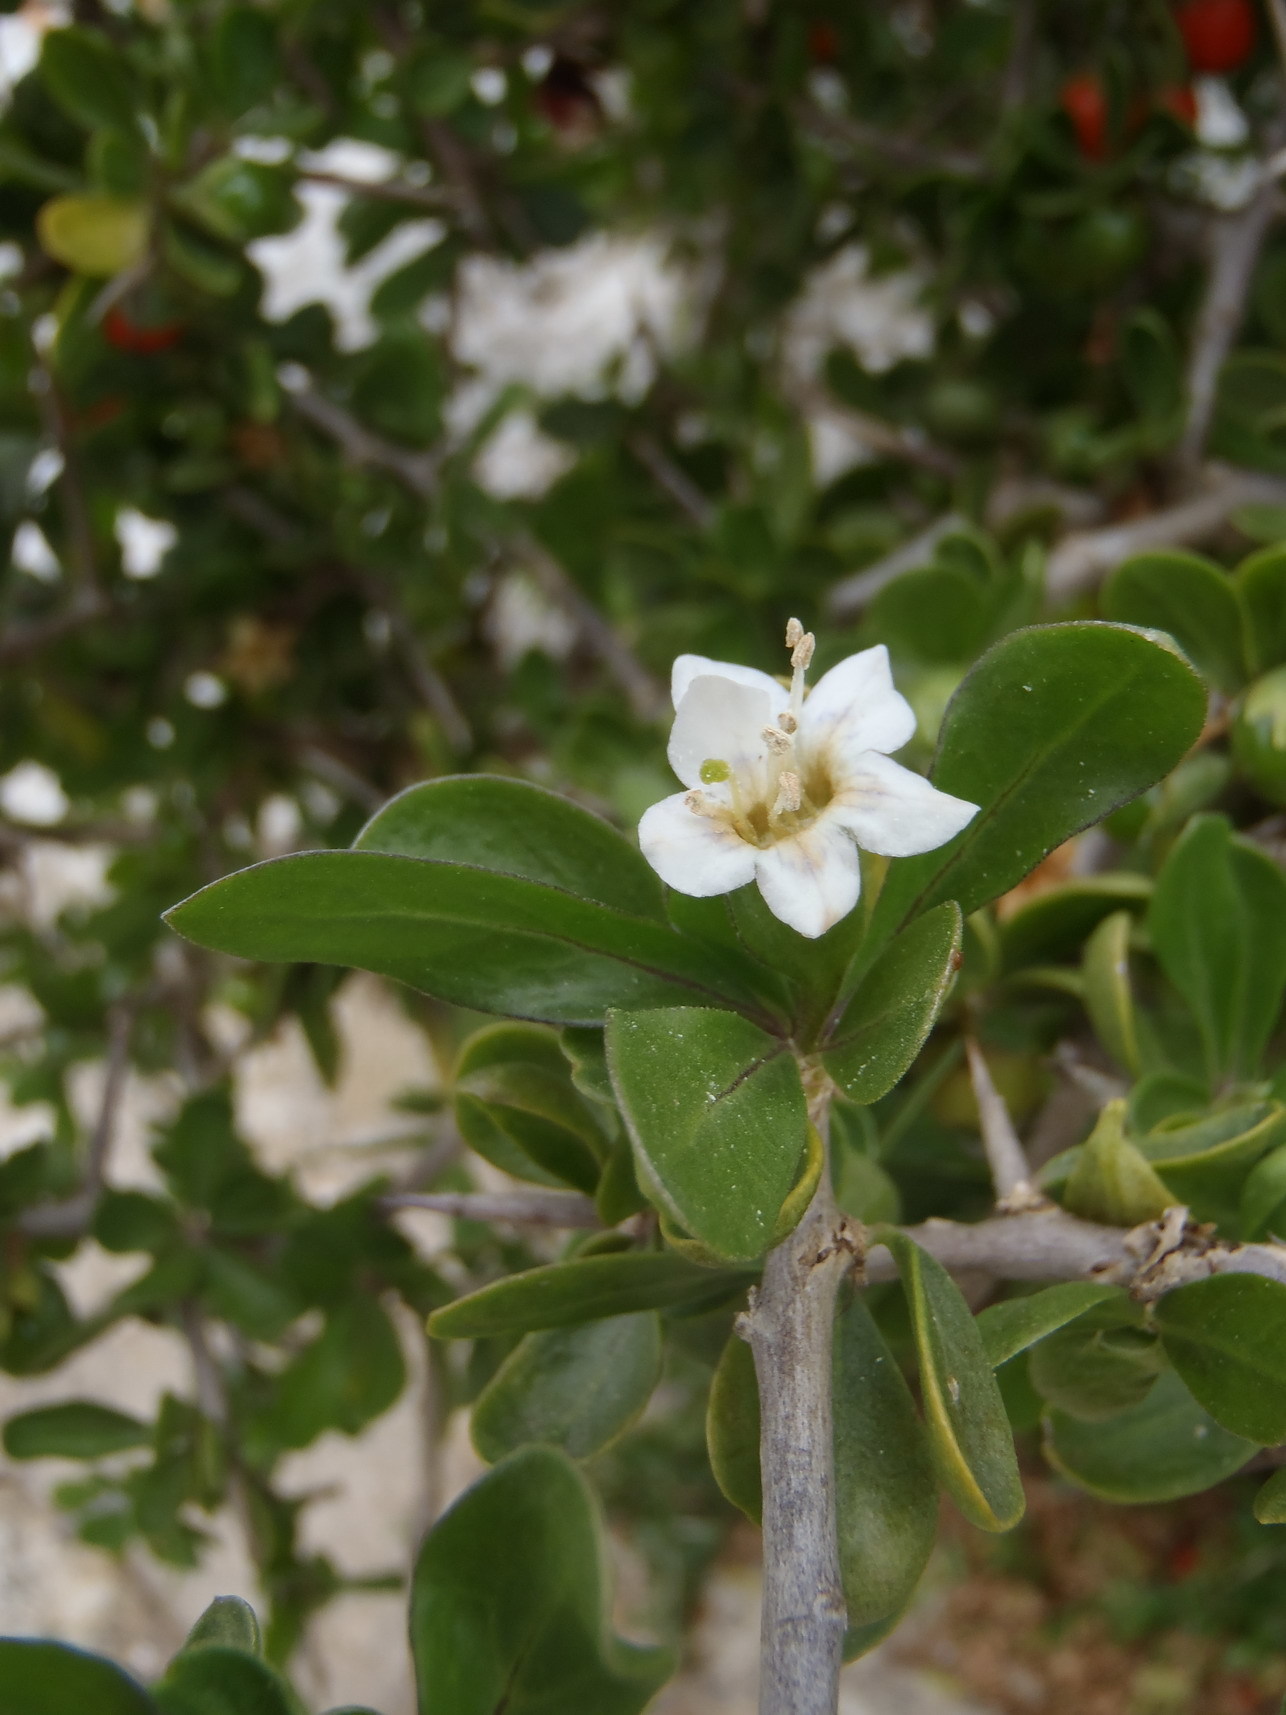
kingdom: Plantae
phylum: Tracheophyta
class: Magnoliopsida
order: Solanales
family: Solanaceae
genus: Lycium
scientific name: Lycium ferocissimum
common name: African boxthorn
